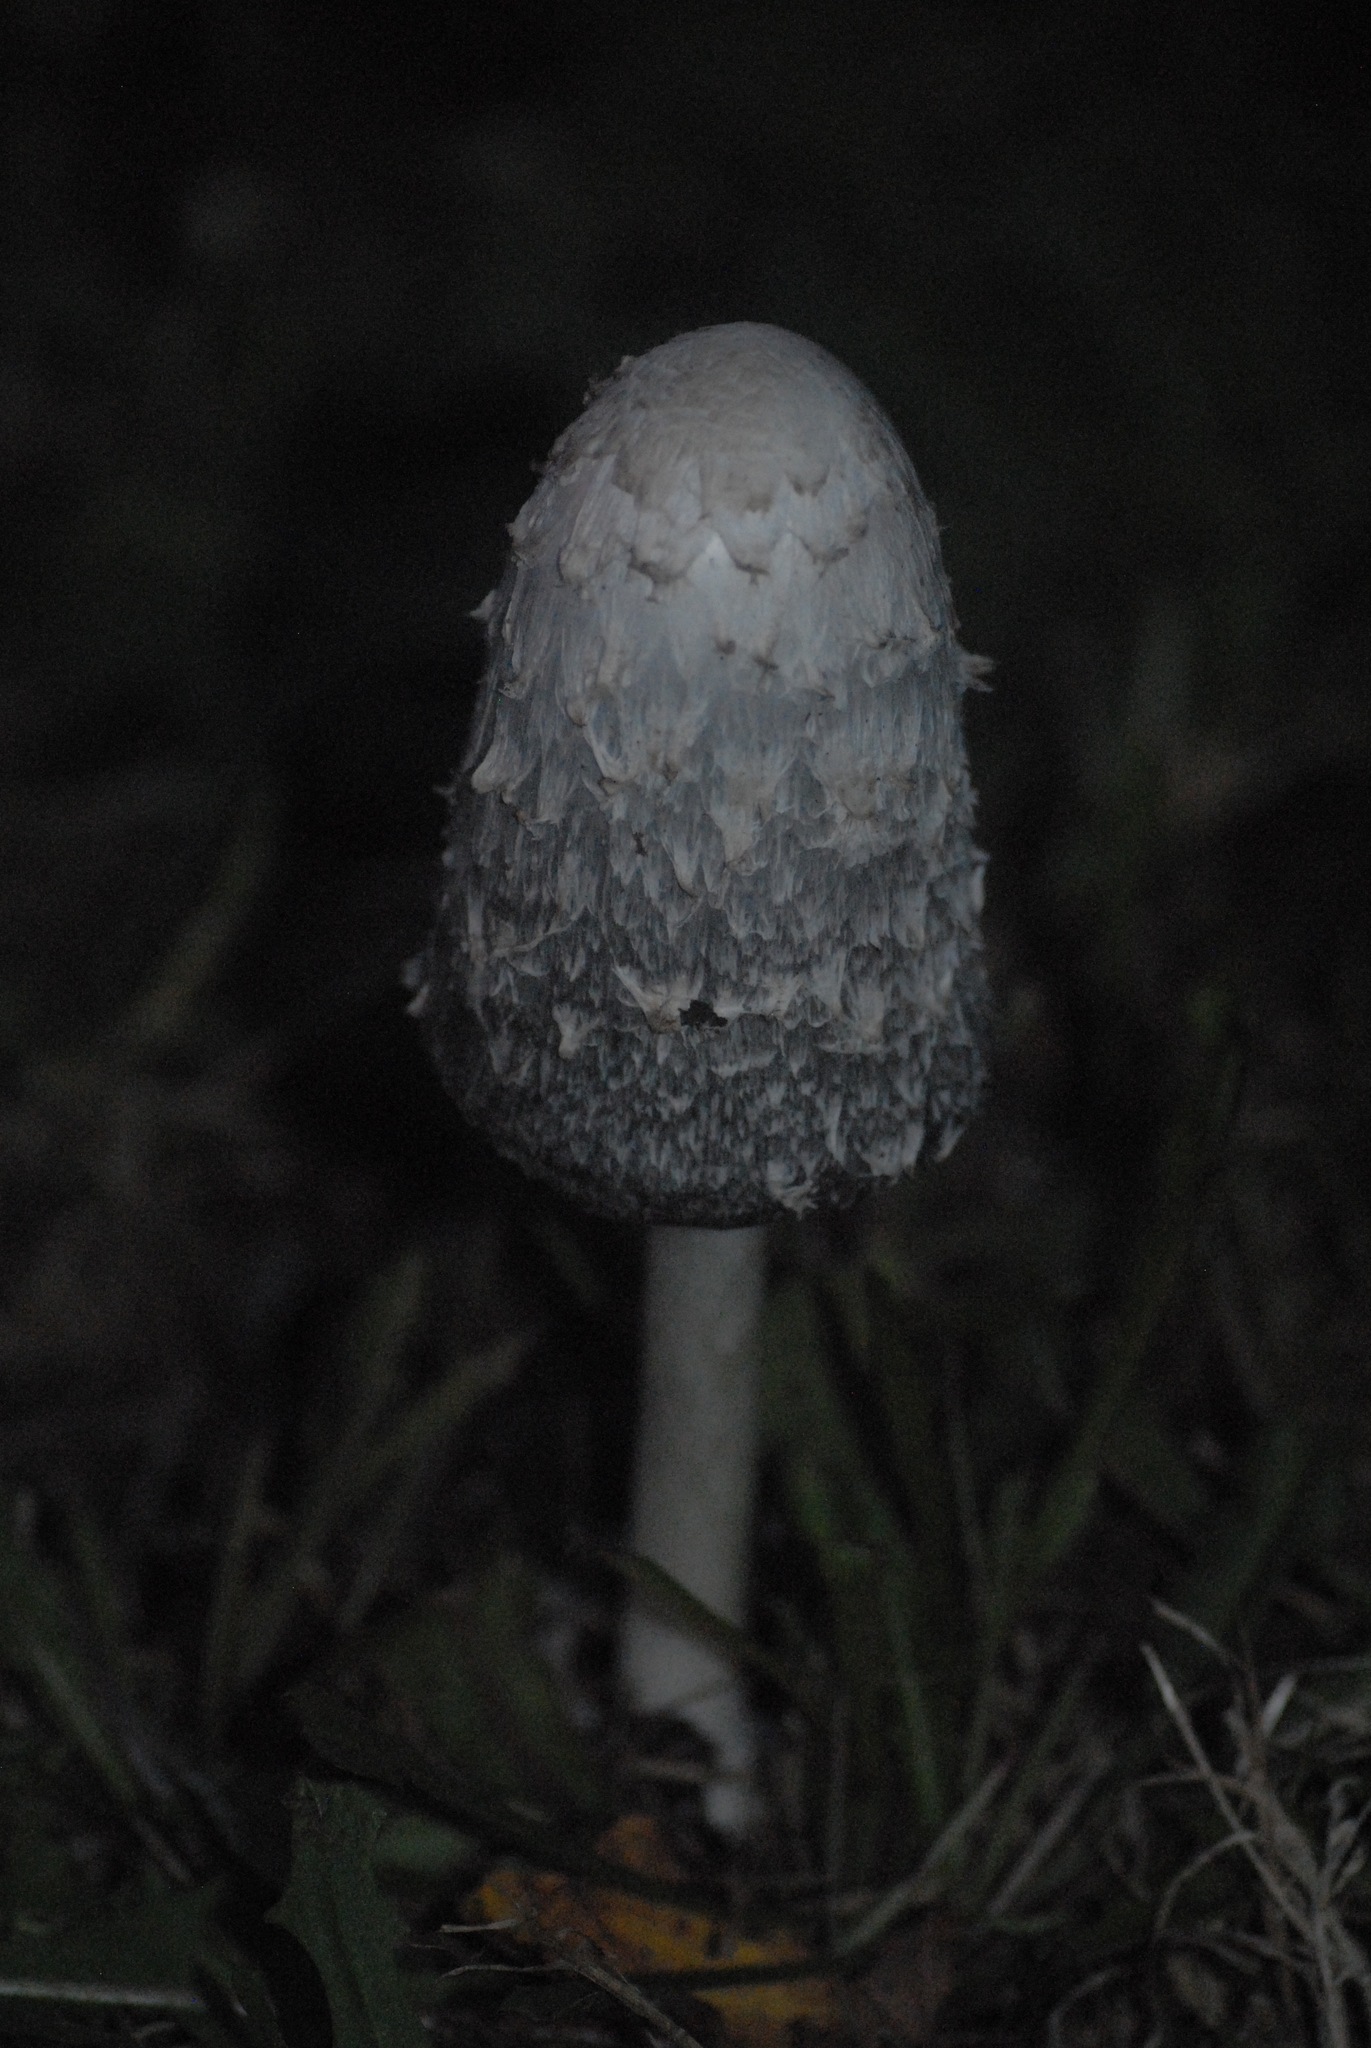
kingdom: Fungi
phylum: Basidiomycota
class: Agaricomycetes
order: Agaricales
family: Agaricaceae
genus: Coprinus
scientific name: Coprinus comatus
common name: Lawyer's wig
